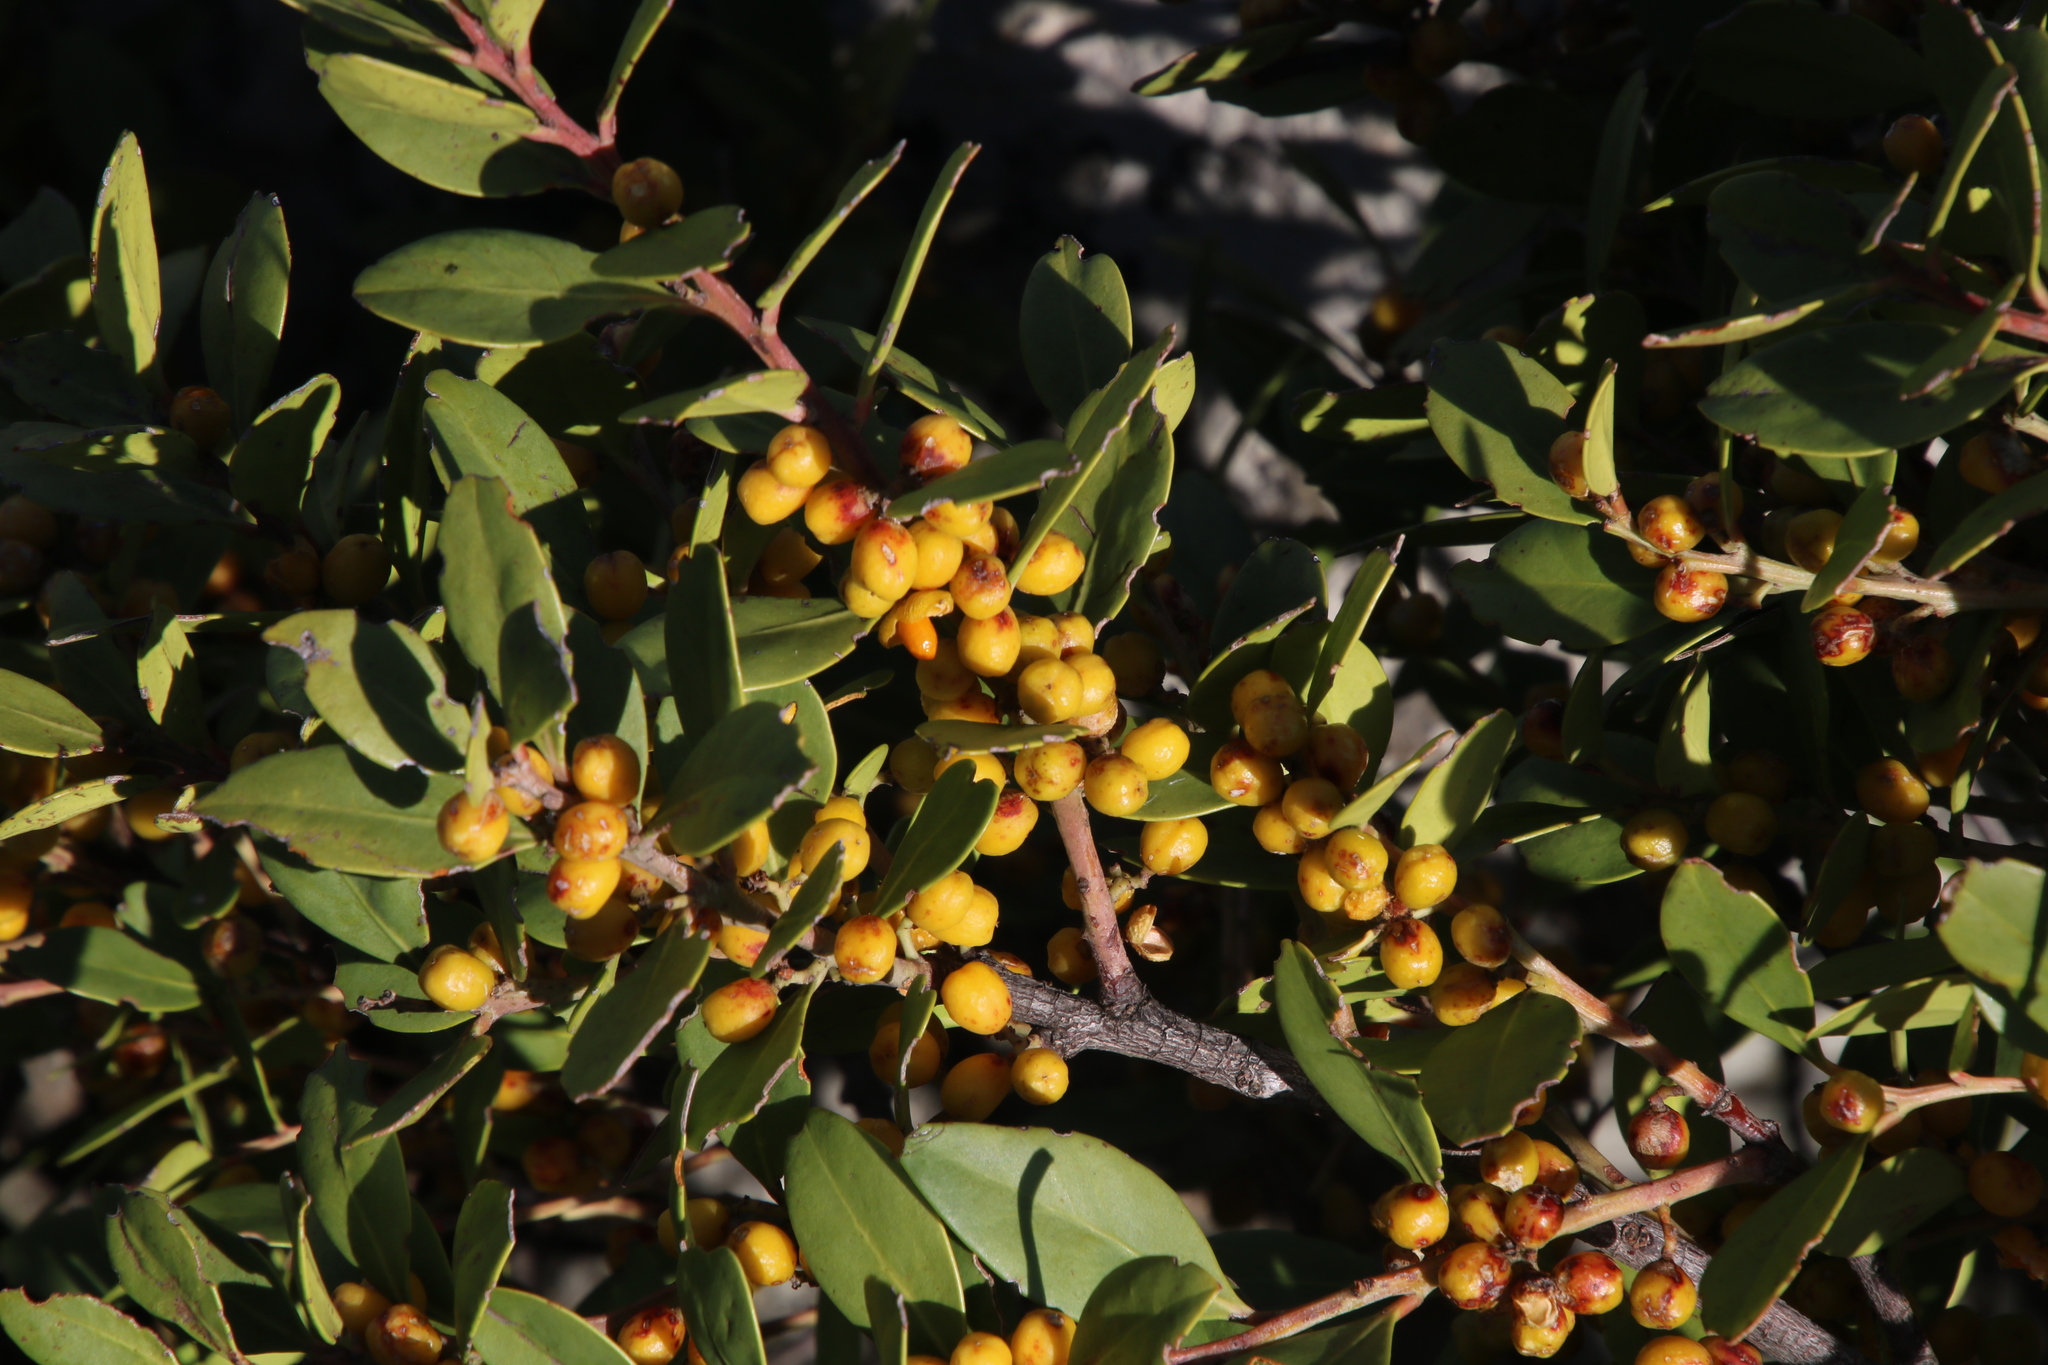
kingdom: Plantae
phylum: Tracheophyta
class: Magnoliopsida
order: Celastrales
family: Celastraceae
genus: Gymnosporia
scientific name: Gymnosporia laurina
